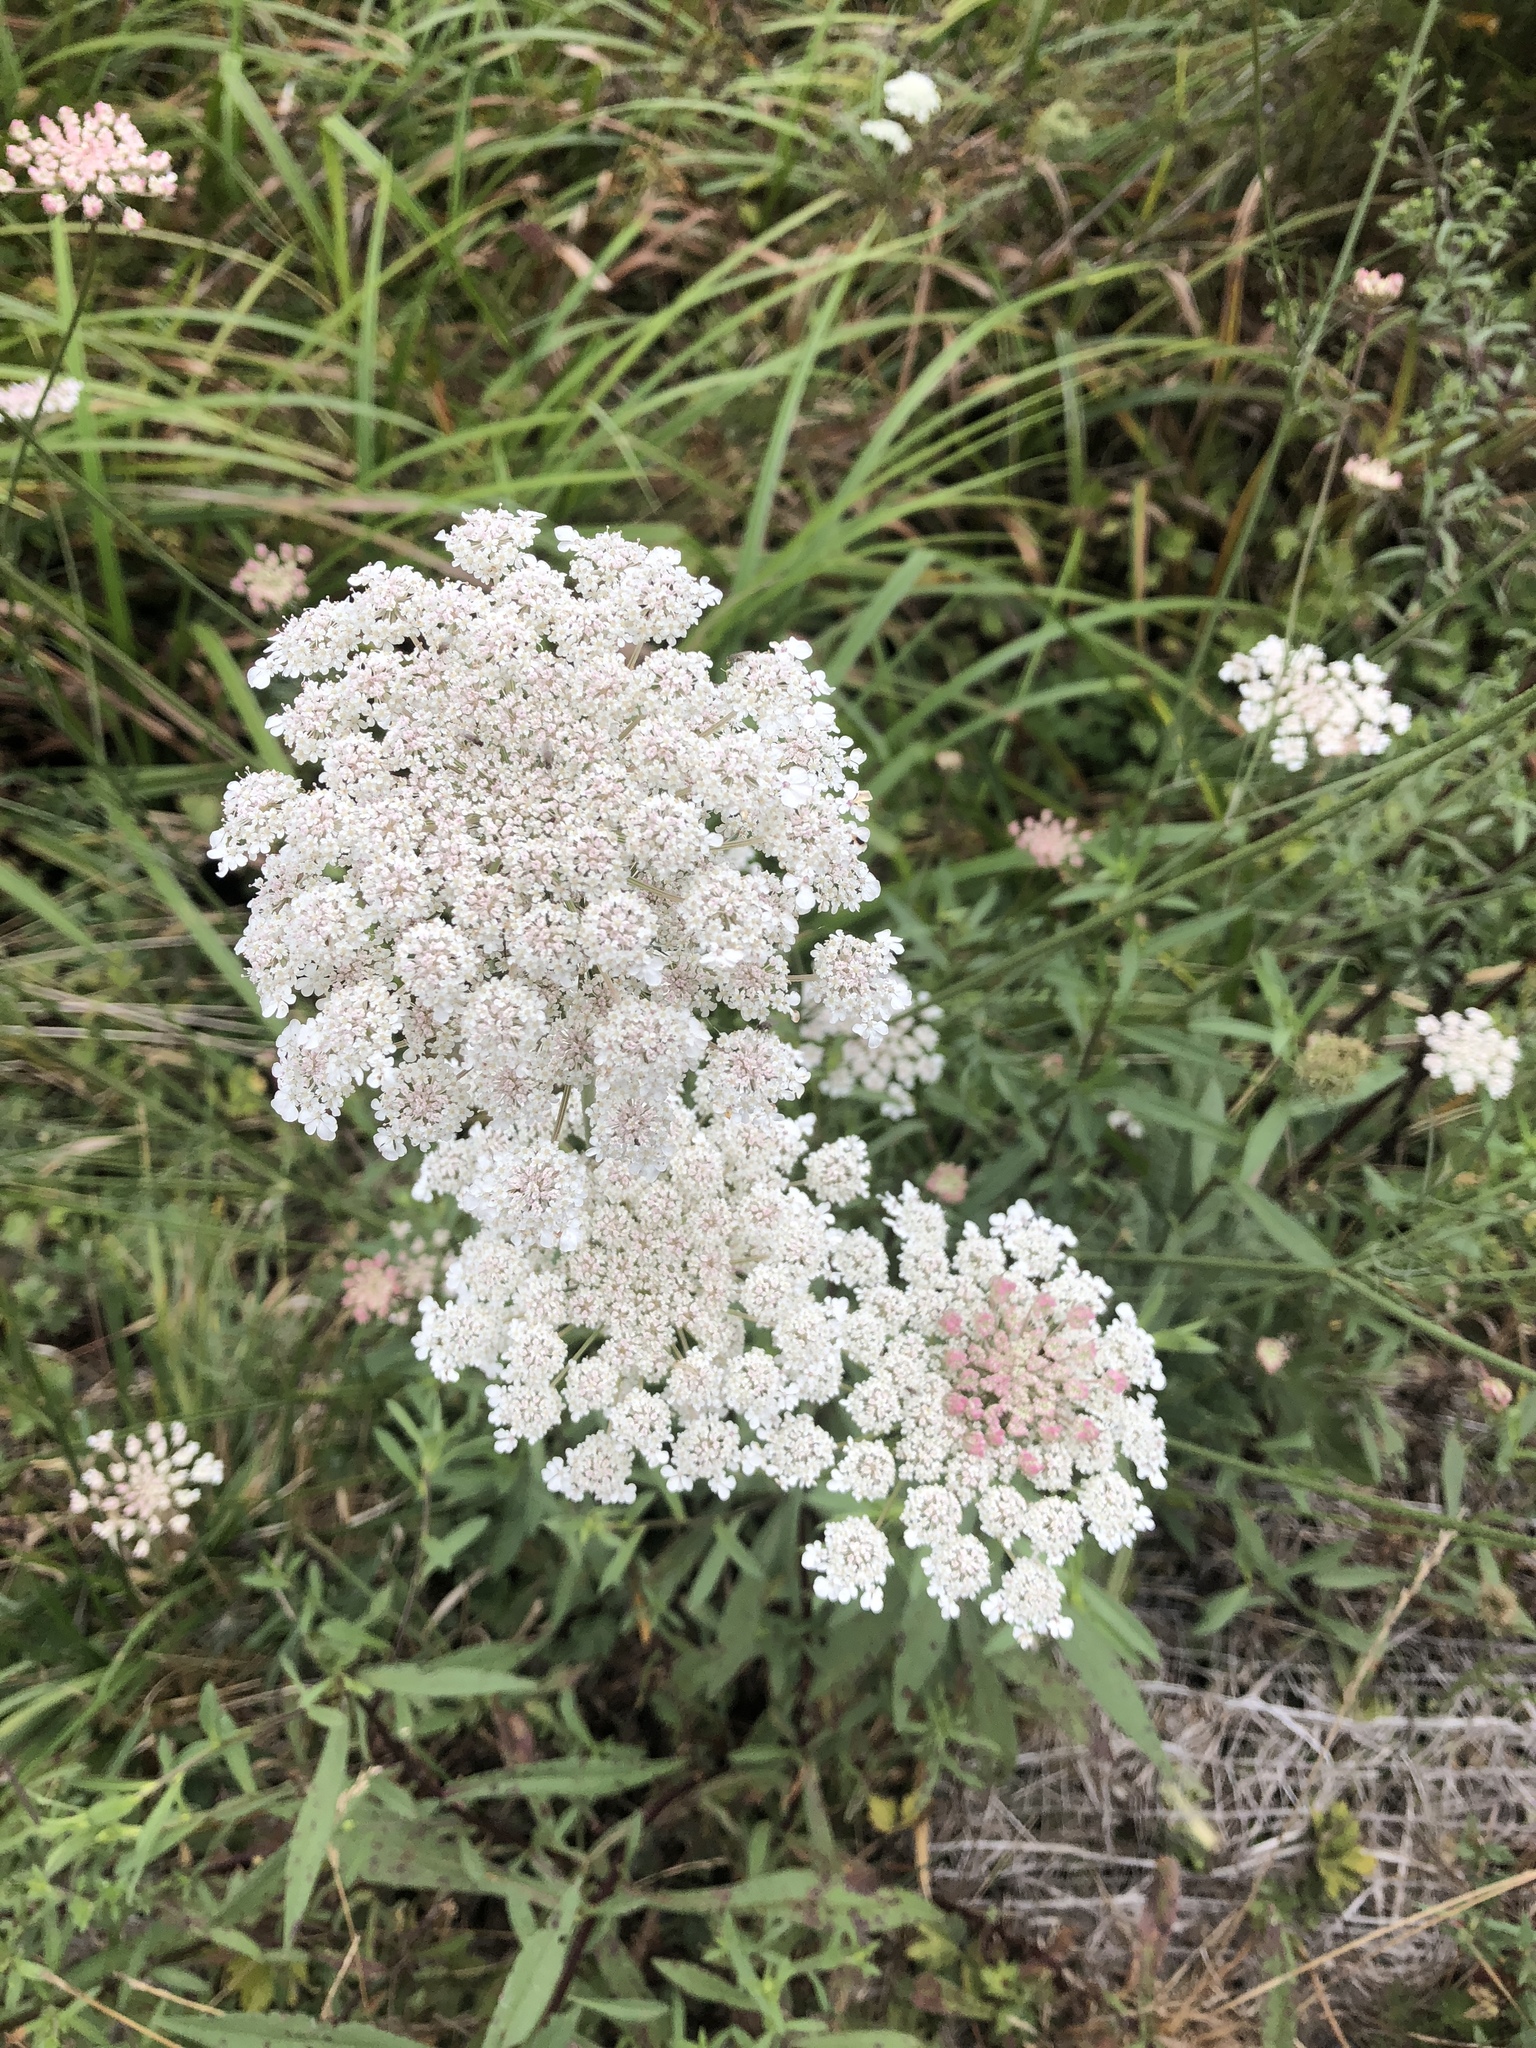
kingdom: Plantae
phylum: Tracheophyta
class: Magnoliopsida
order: Apiales
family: Apiaceae
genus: Daucus
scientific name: Daucus carota
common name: Wild carrot
